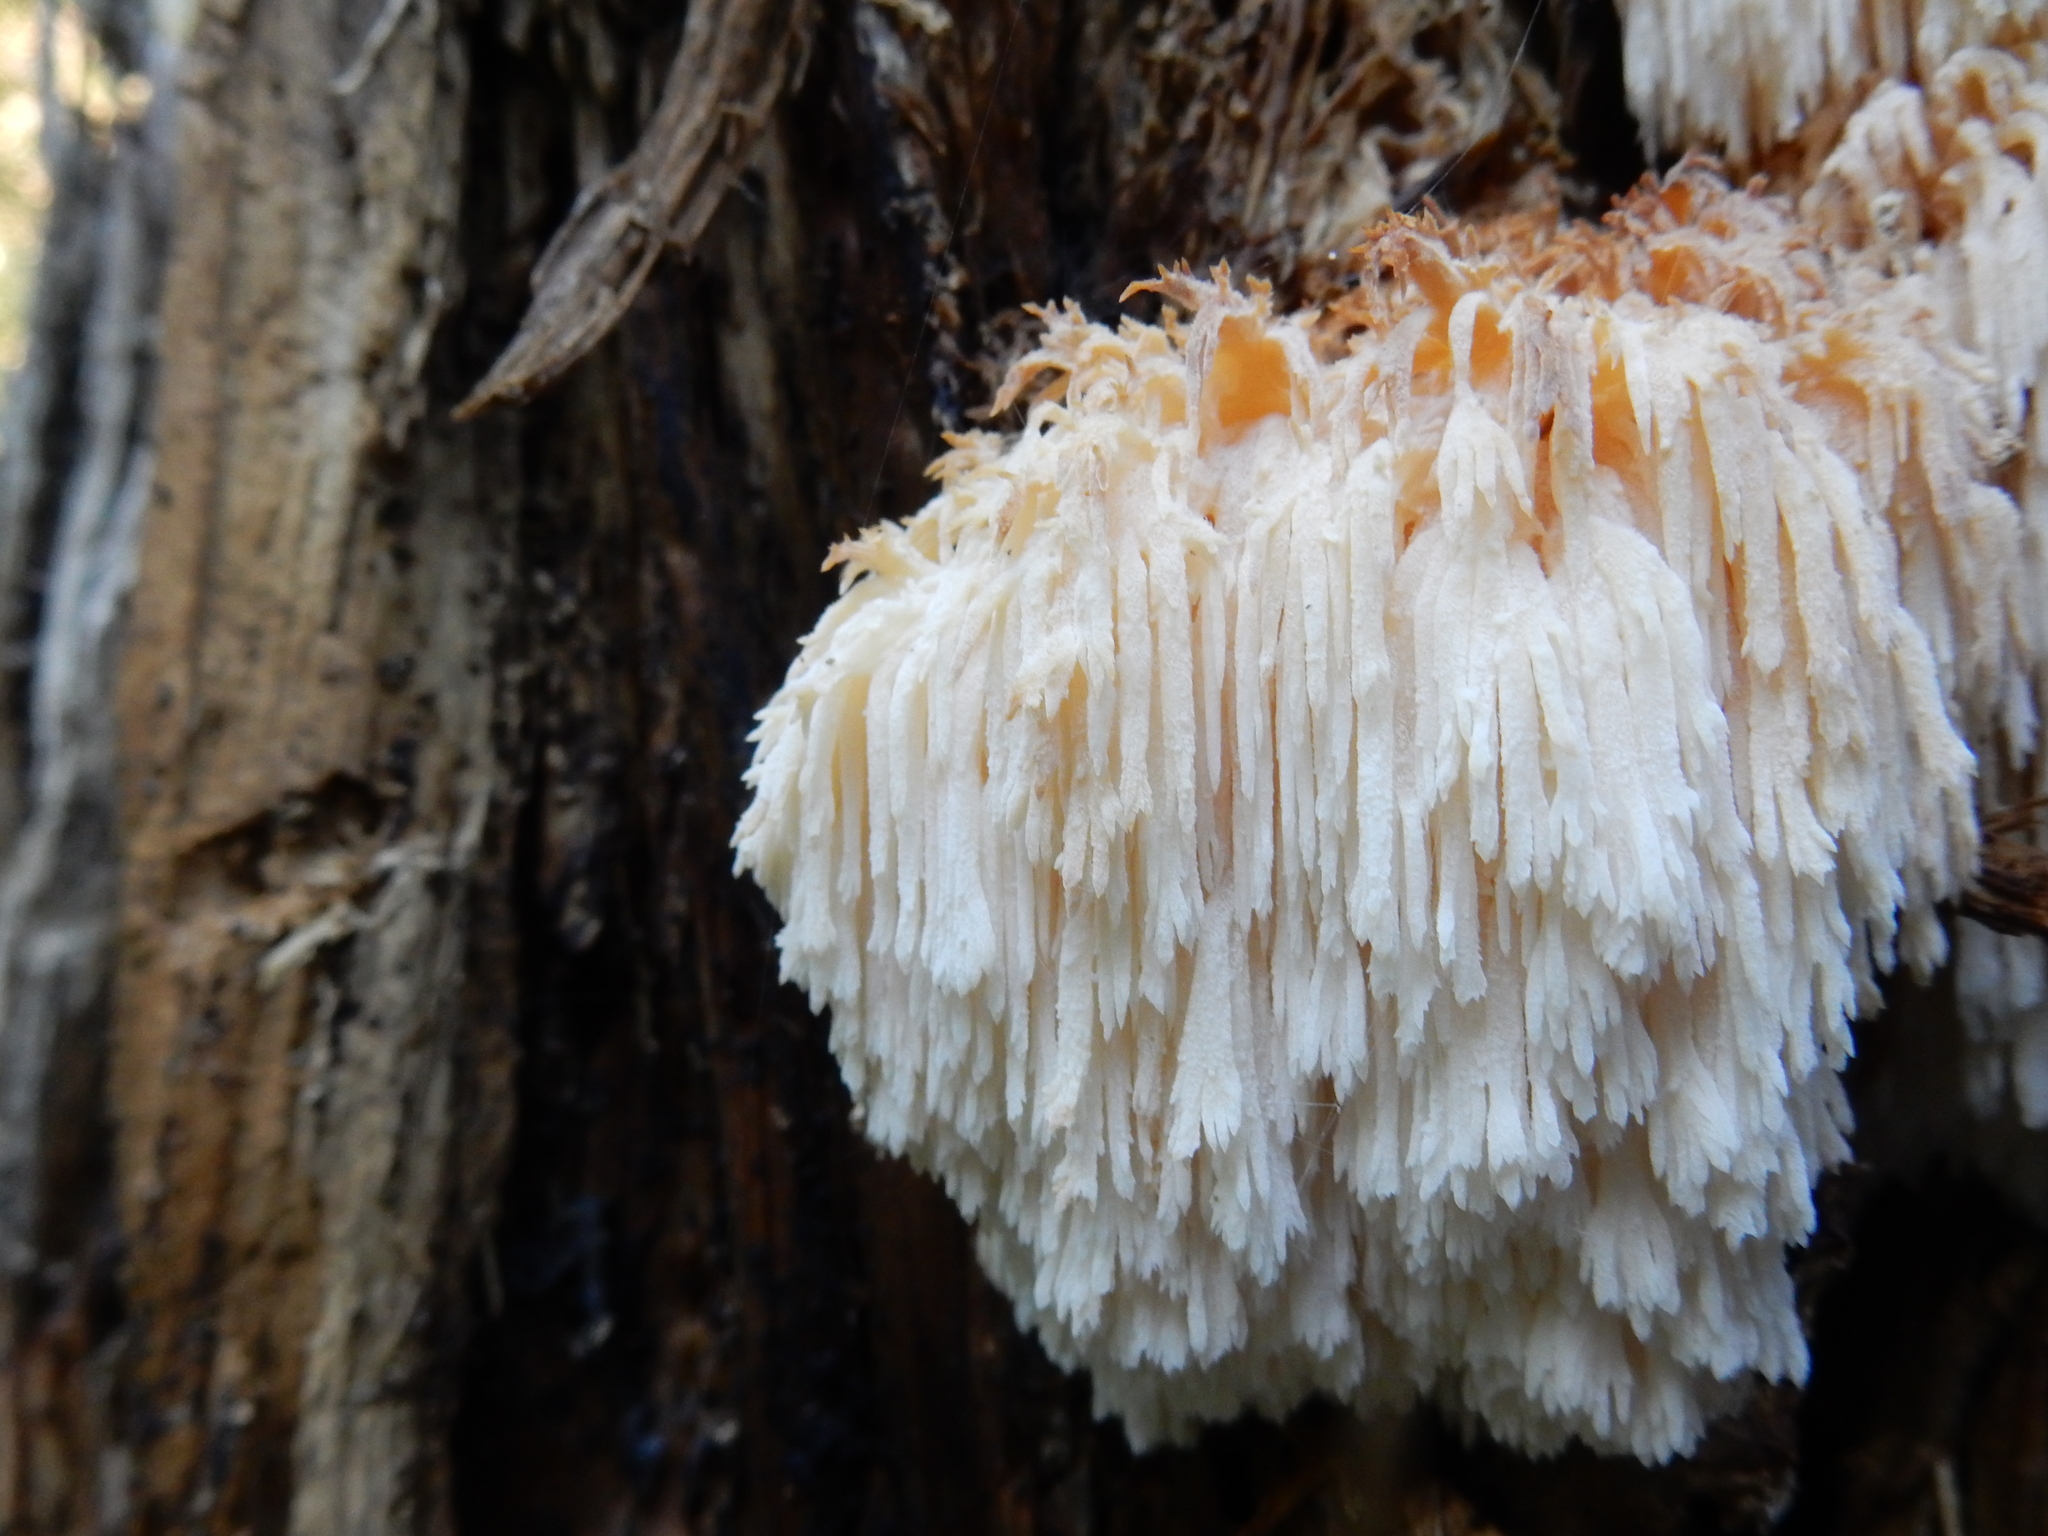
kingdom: Fungi
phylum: Basidiomycota
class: Agaricomycetes
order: Russulales
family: Hericiaceae
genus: Hericium
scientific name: Hericium novae-zealandiae
